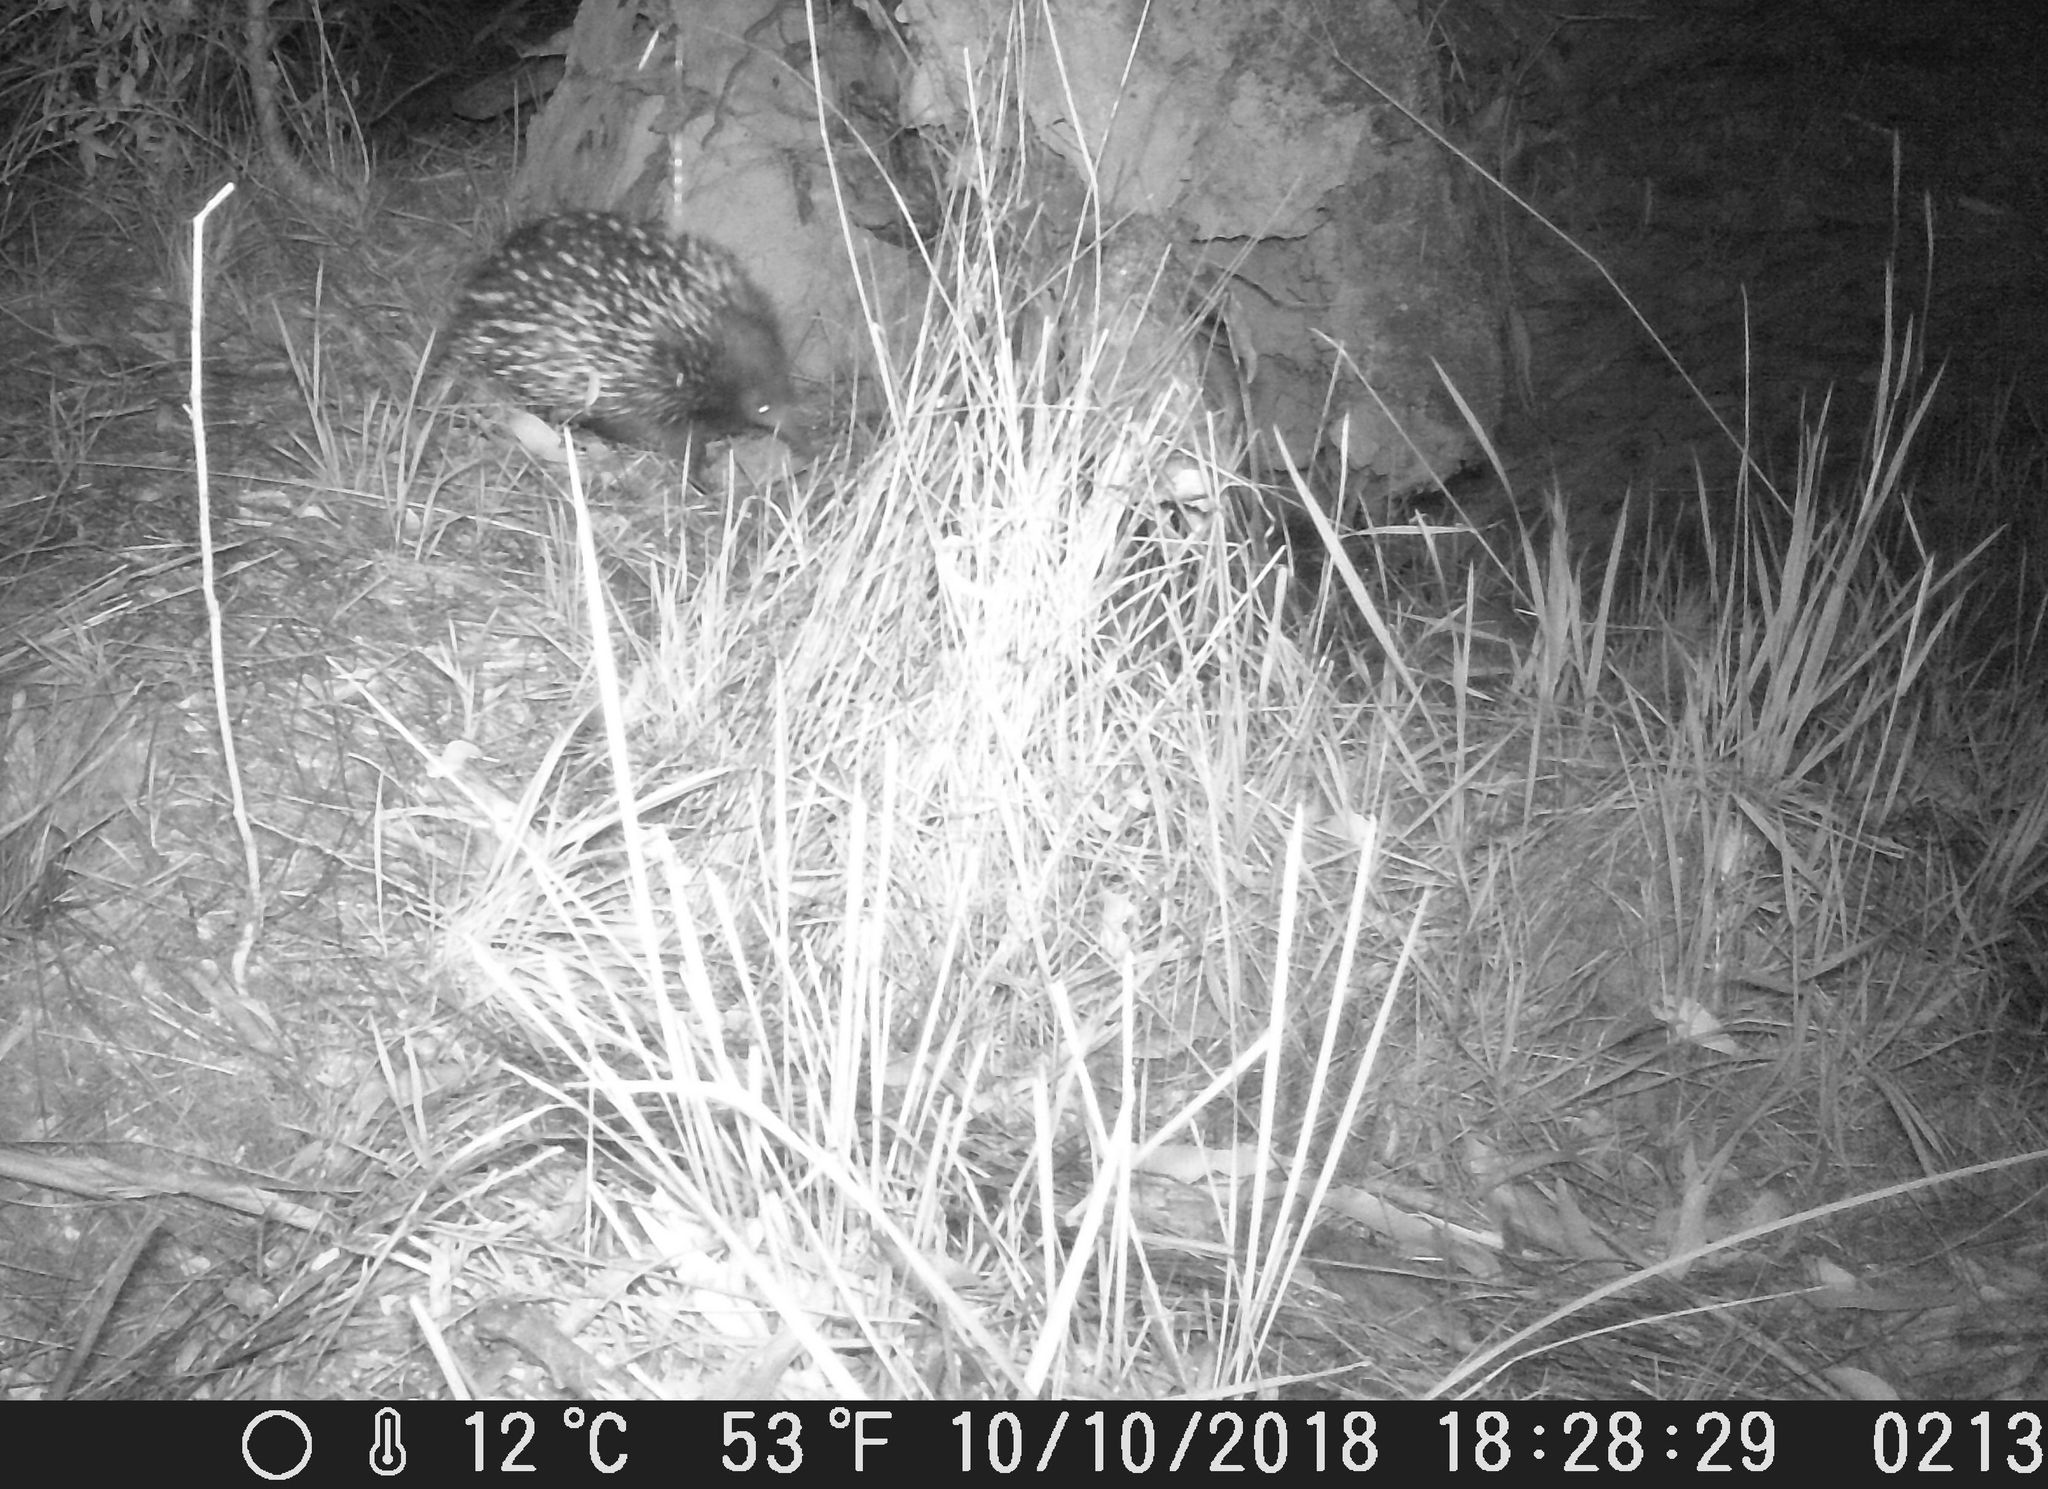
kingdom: Animalia
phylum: Chordata
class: Mammalia
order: Monotremata
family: Tachyglossidae
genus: Tachyglossus
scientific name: Tachyglossus aculeatus
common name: Short-beaked echidna
